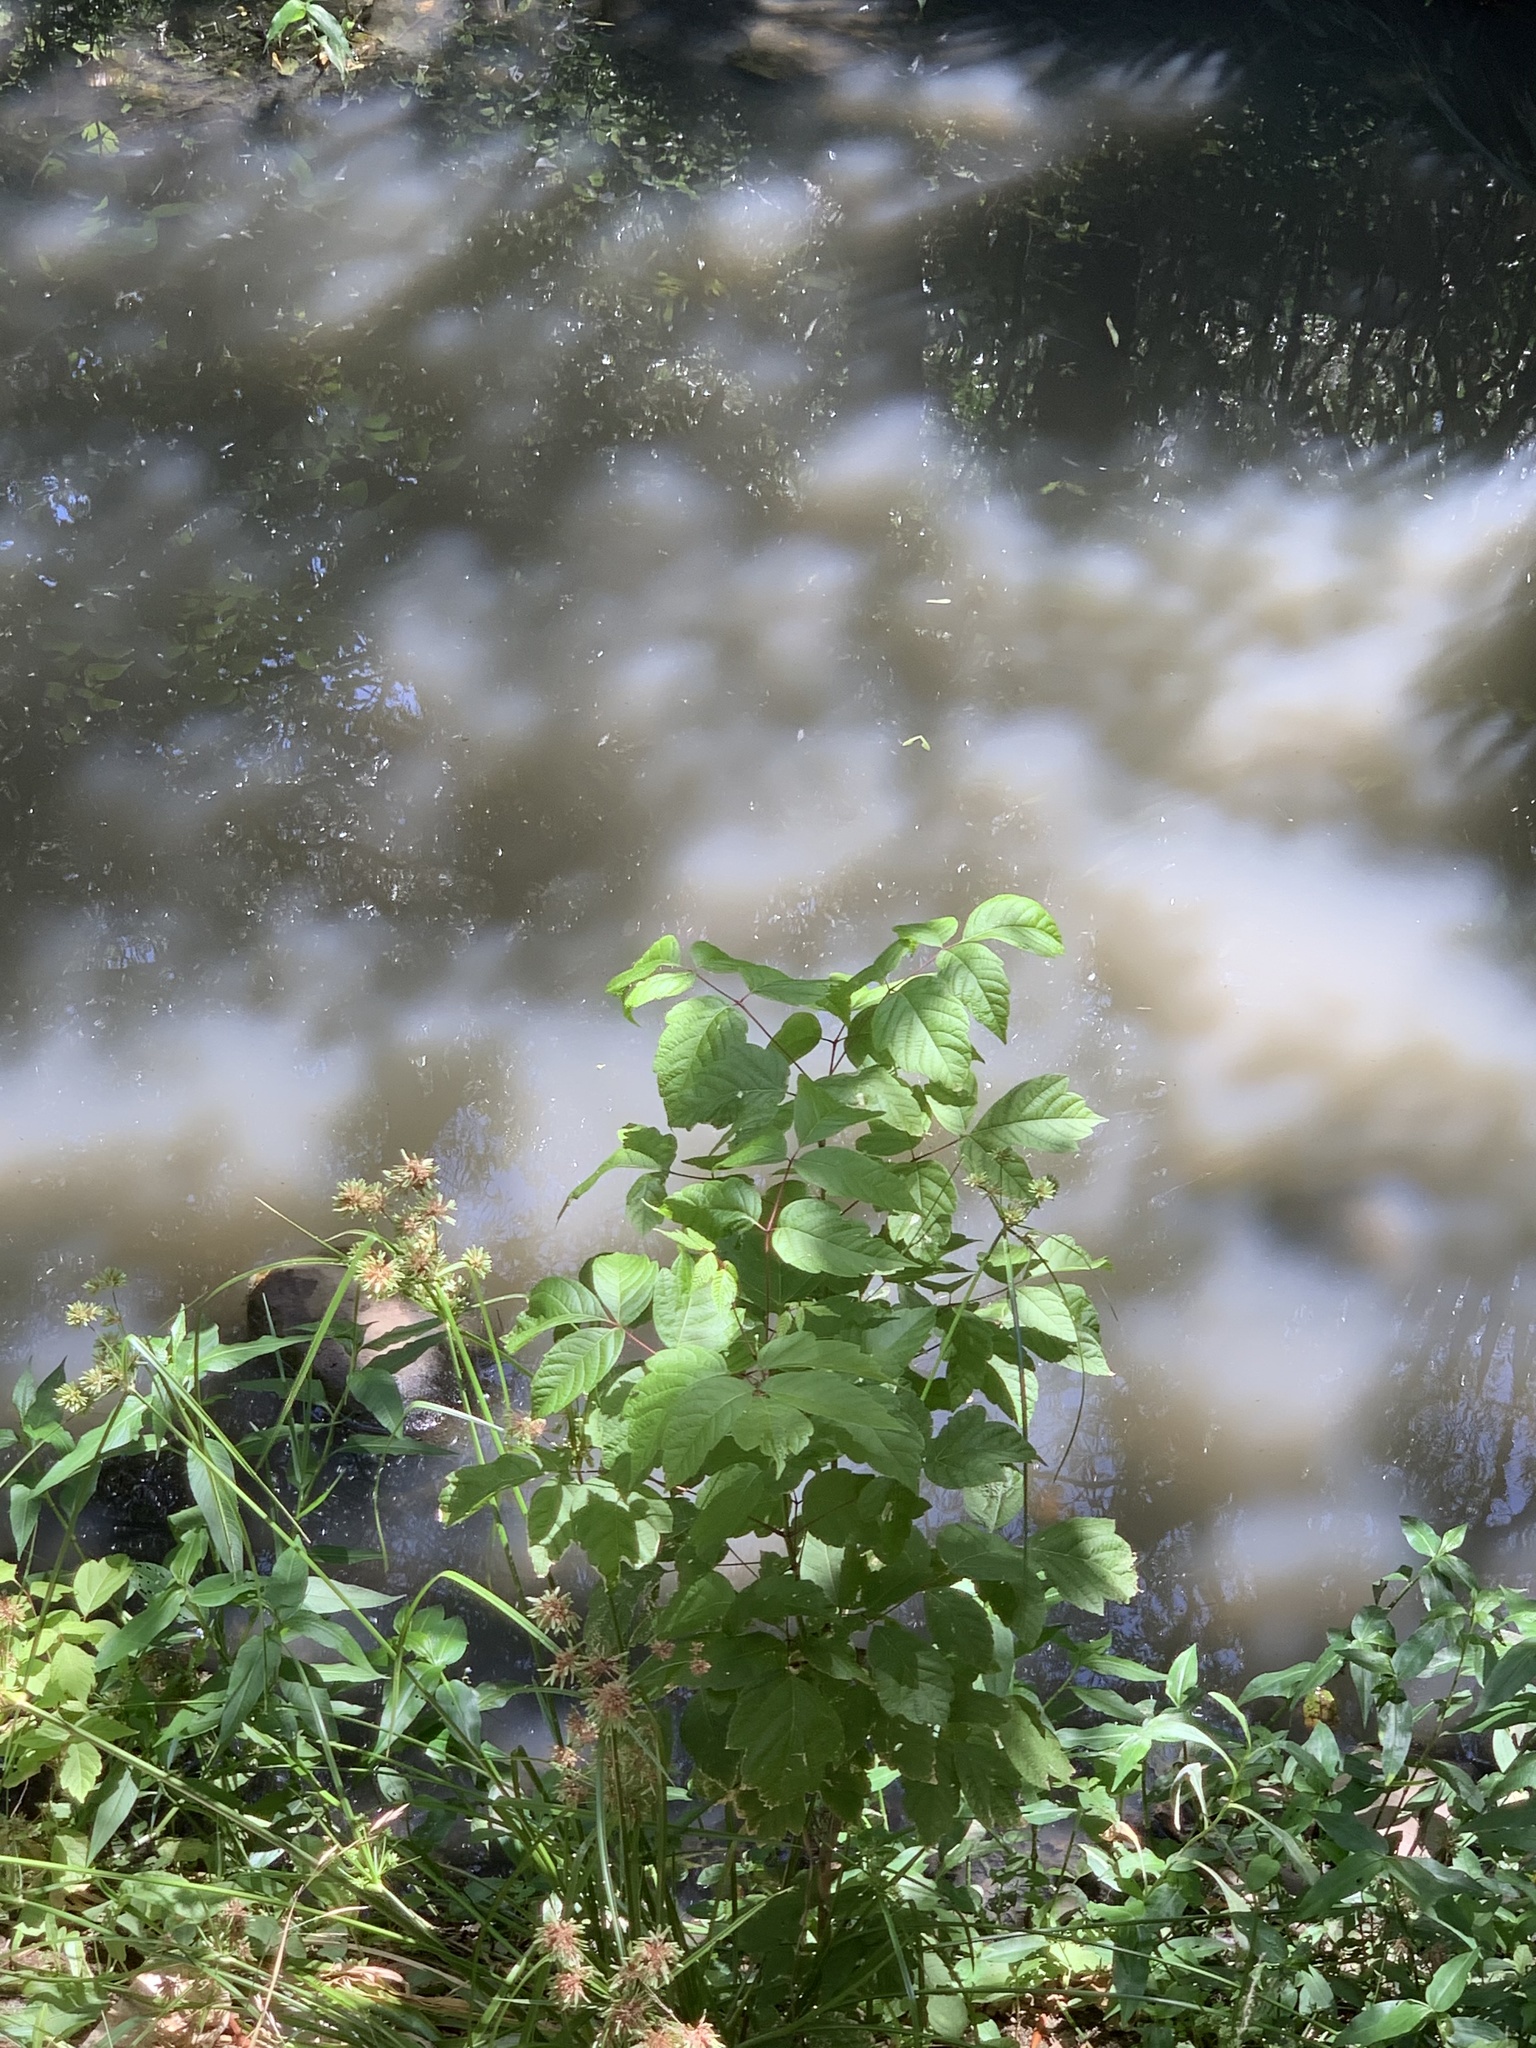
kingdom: Plantae
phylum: Tracheophyta
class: Magnoliopsida
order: Sapindales
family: Sapindaceae
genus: Acer
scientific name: Acer negundo
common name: Ashleaf maple
